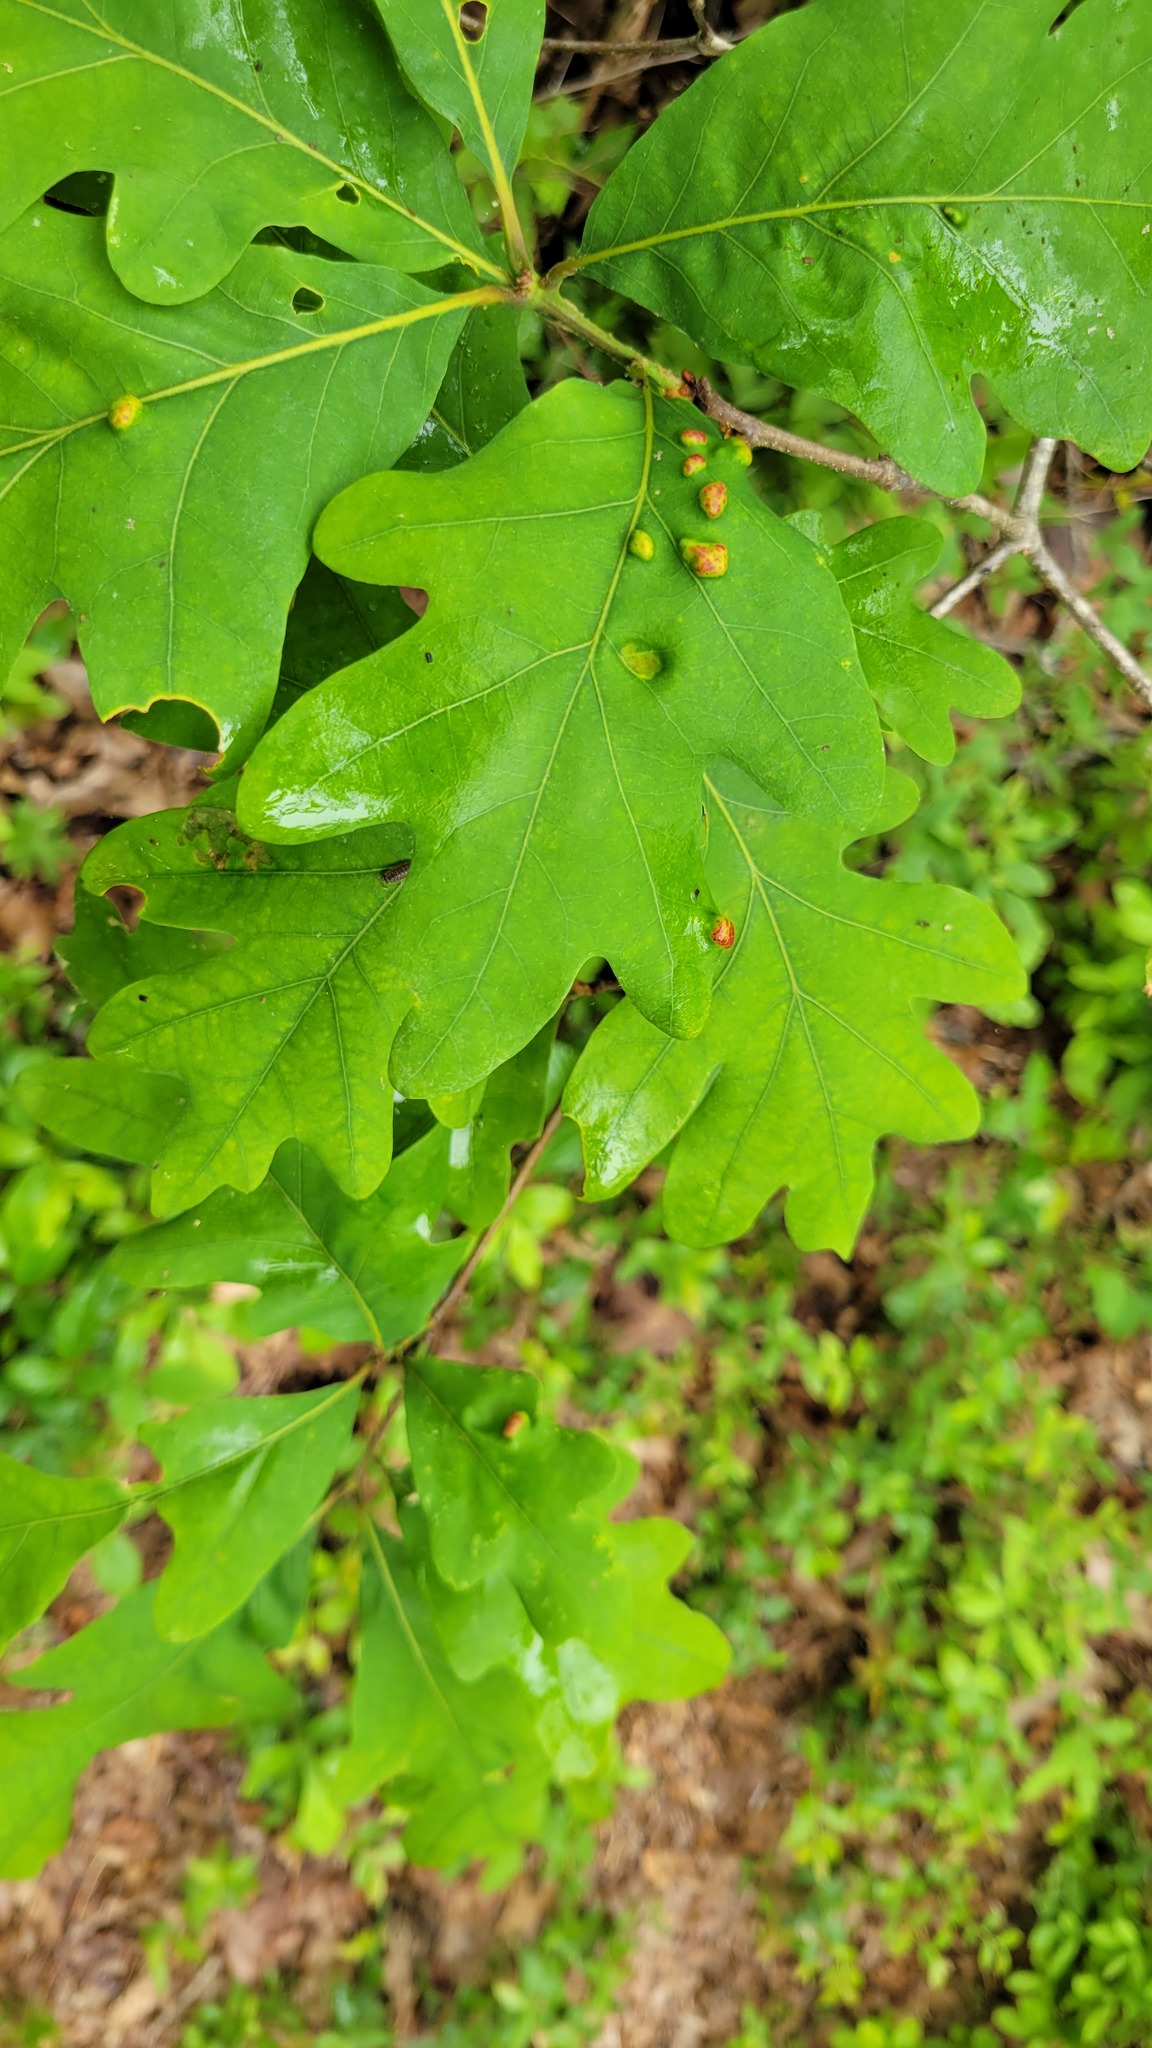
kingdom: Animalia
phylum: Arthropoda
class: Arachnida
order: Trombidiformes
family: Eriophyidae
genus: Aceria
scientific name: Aceria
